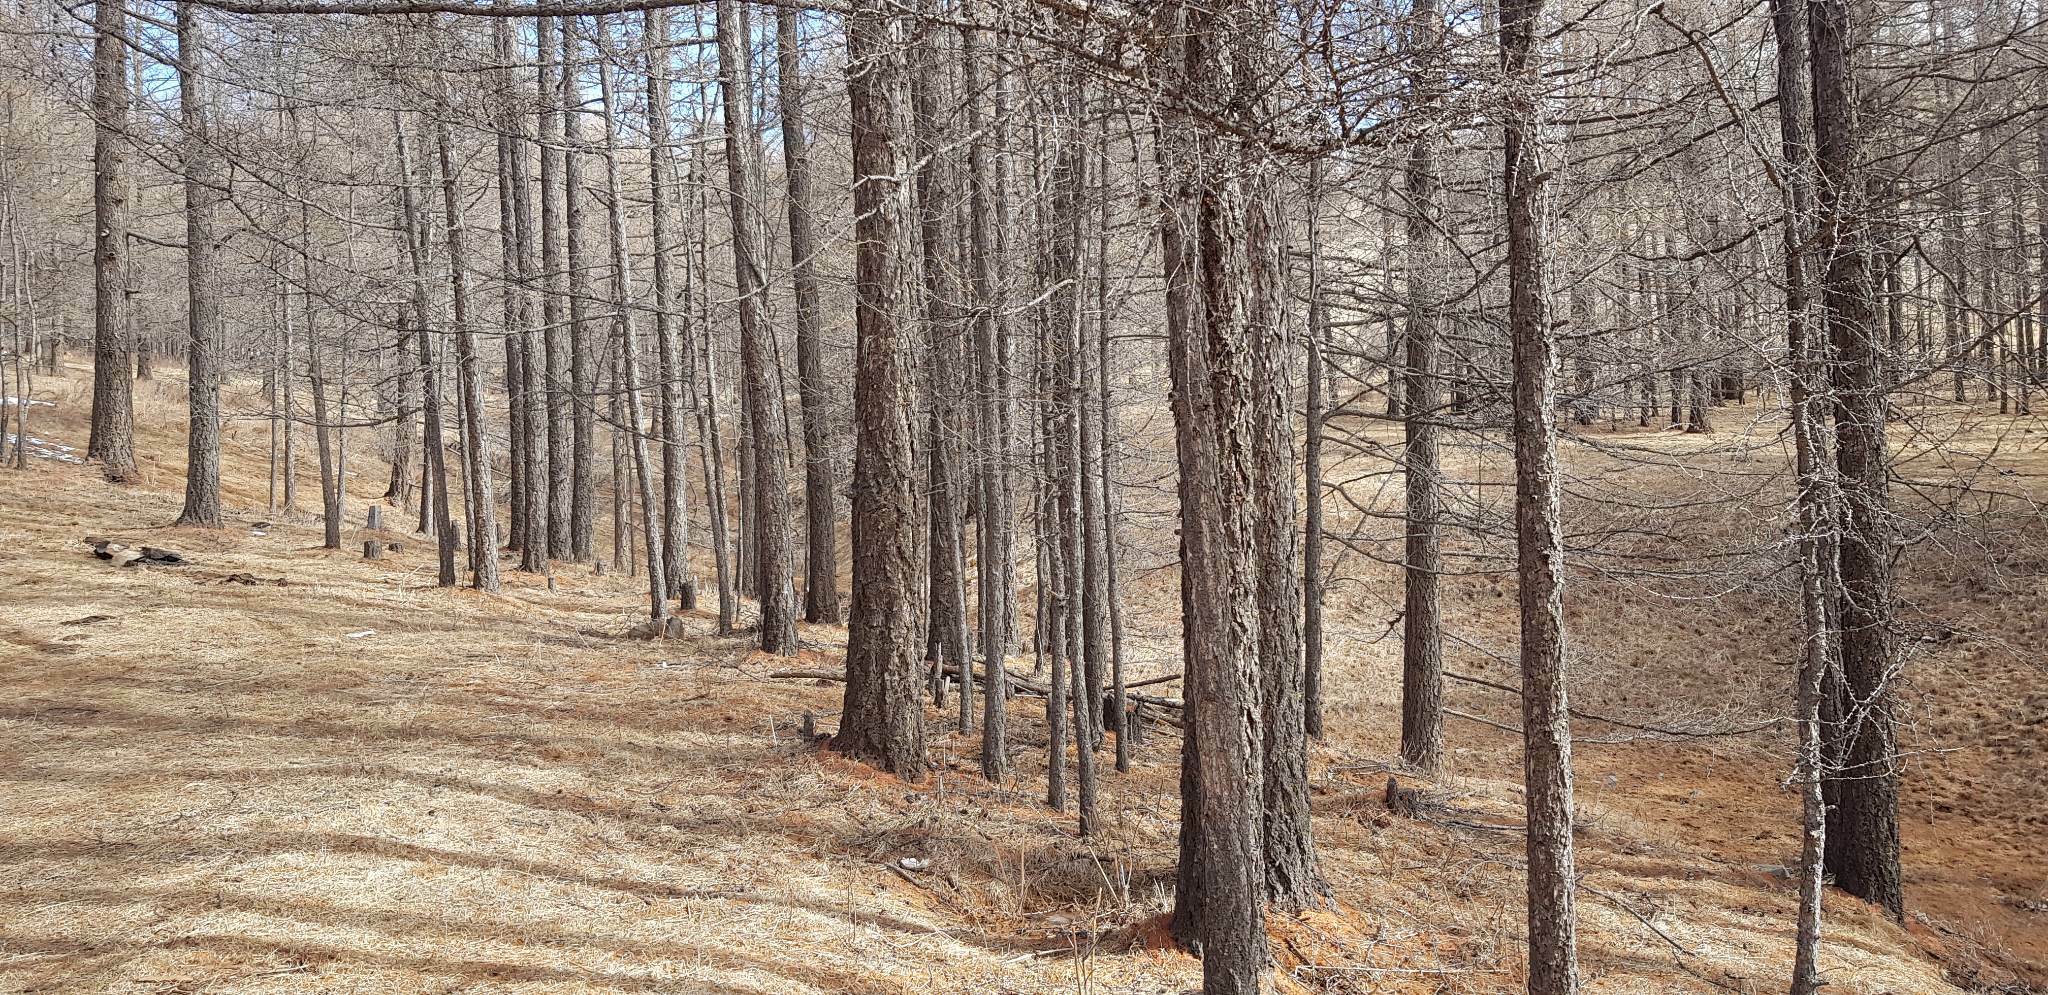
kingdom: Plantae
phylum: Tracheophyta
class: Pinopsida
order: Pinales
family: Pinaceae
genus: Larix
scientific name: Larix sibirica
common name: Siberian larch
